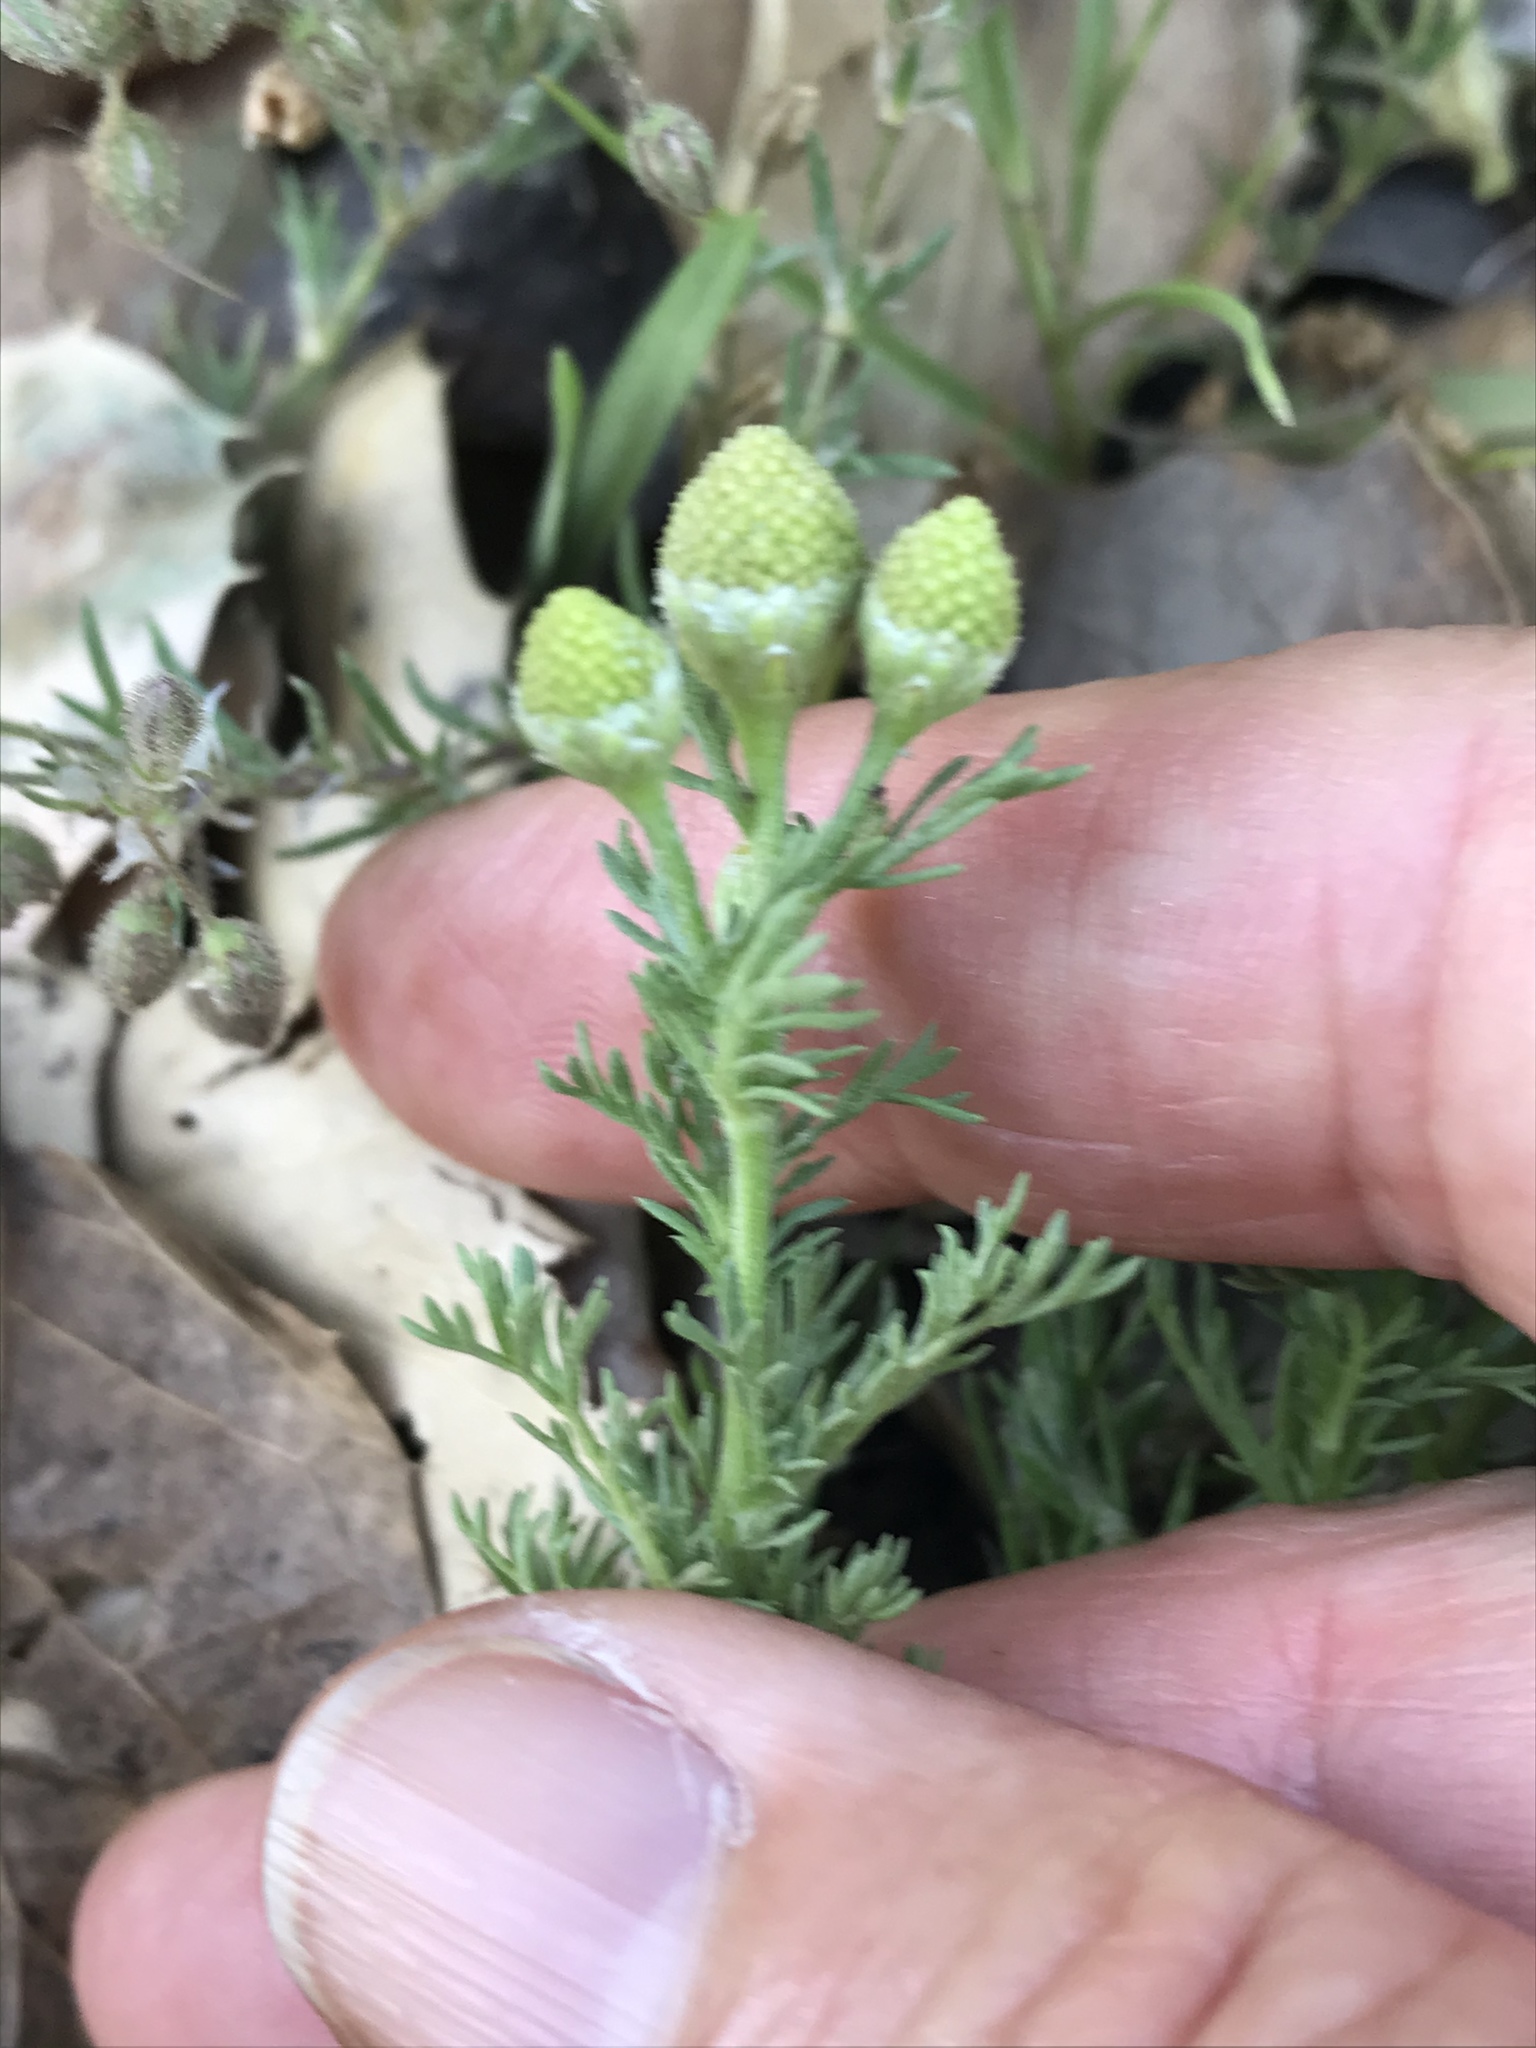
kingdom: Plantae
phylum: Tracheophyta
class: Magnoliopsida
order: Asterales
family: Asteraceae
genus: Matricaria
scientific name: Matricaria discoidea
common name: Disc mayweed
